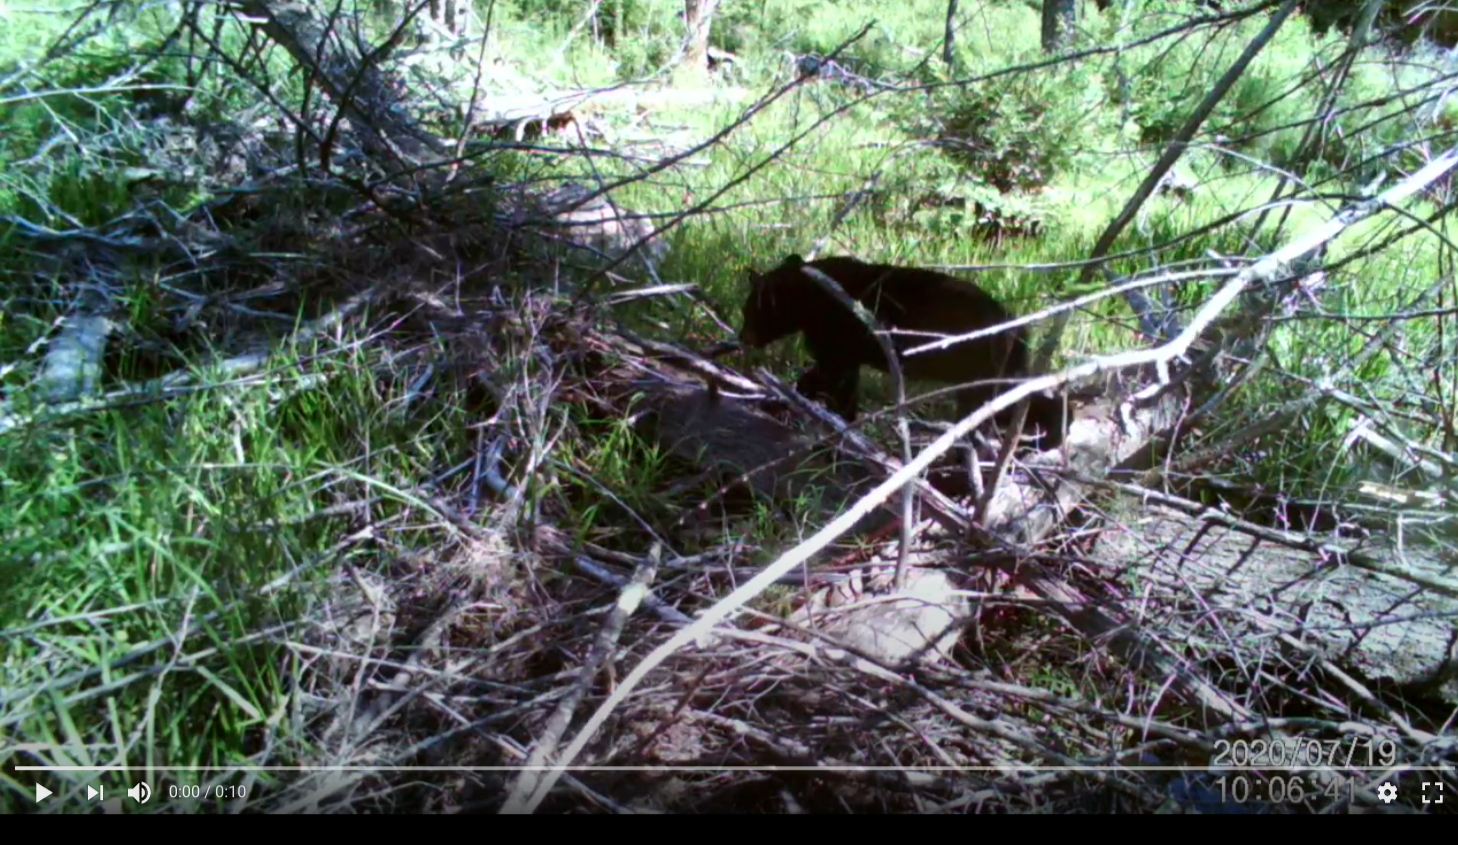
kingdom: Animalia
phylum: Chordata
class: Mammalia
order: Carnivora
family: Ursidae
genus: Ursus
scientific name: Ursus americanus
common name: American black bear
